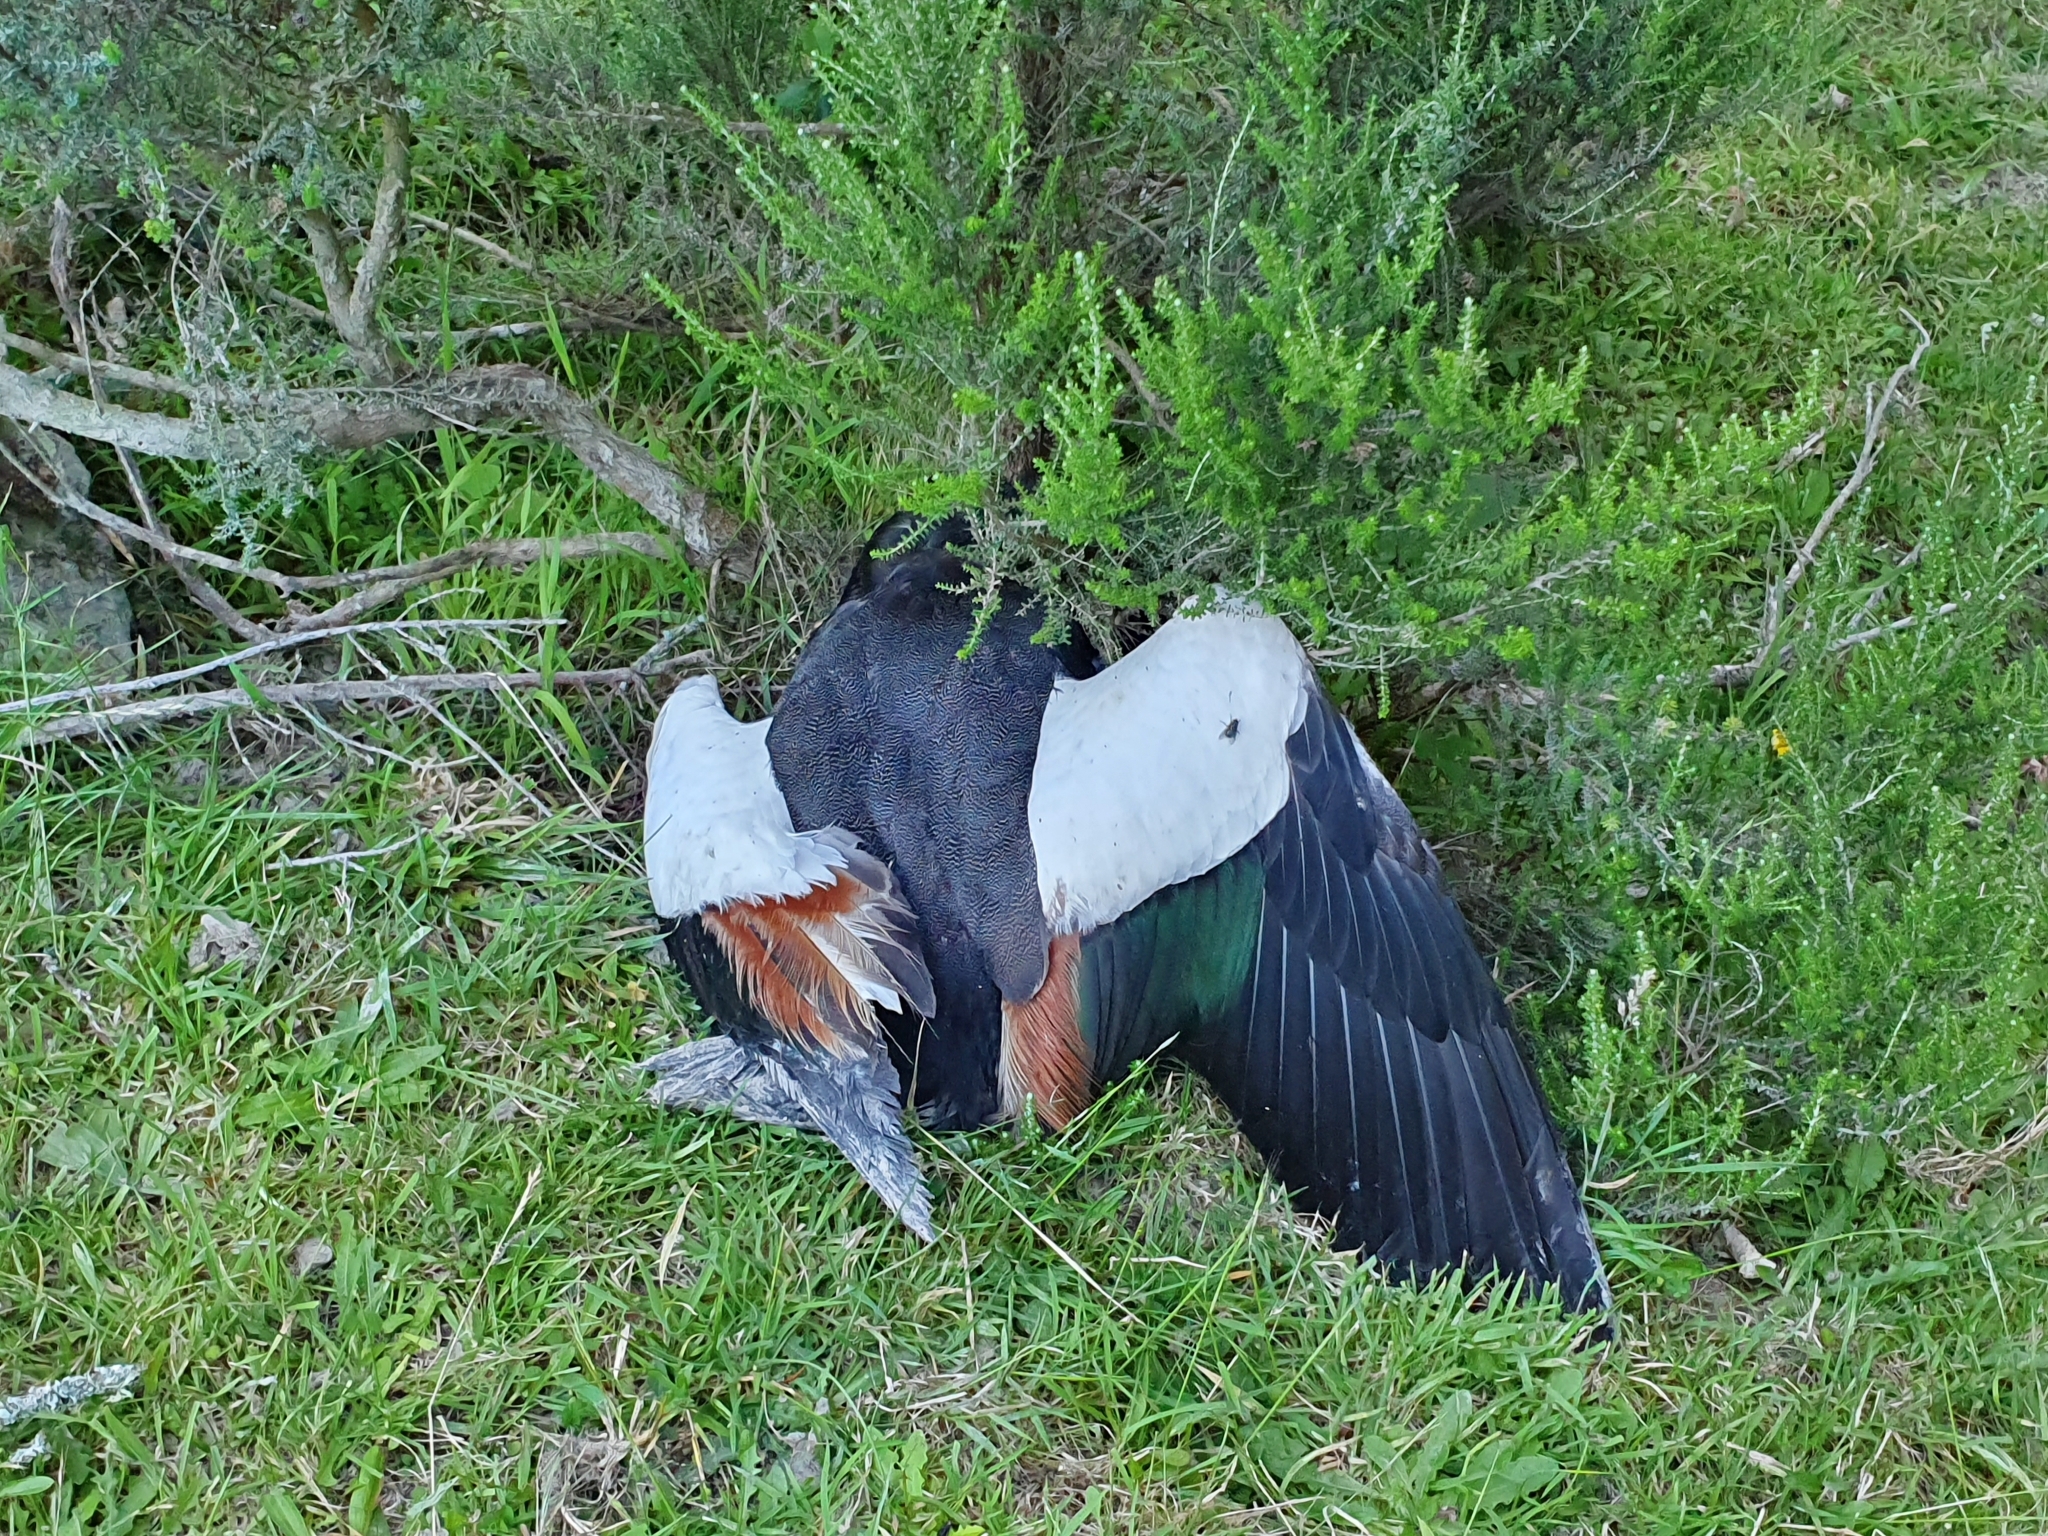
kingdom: Animalia
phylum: Chordata
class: Aves
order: Anseriformes
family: Anatidae
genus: Tadorna
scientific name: Tadorna variegata
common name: Paradise shelduck
